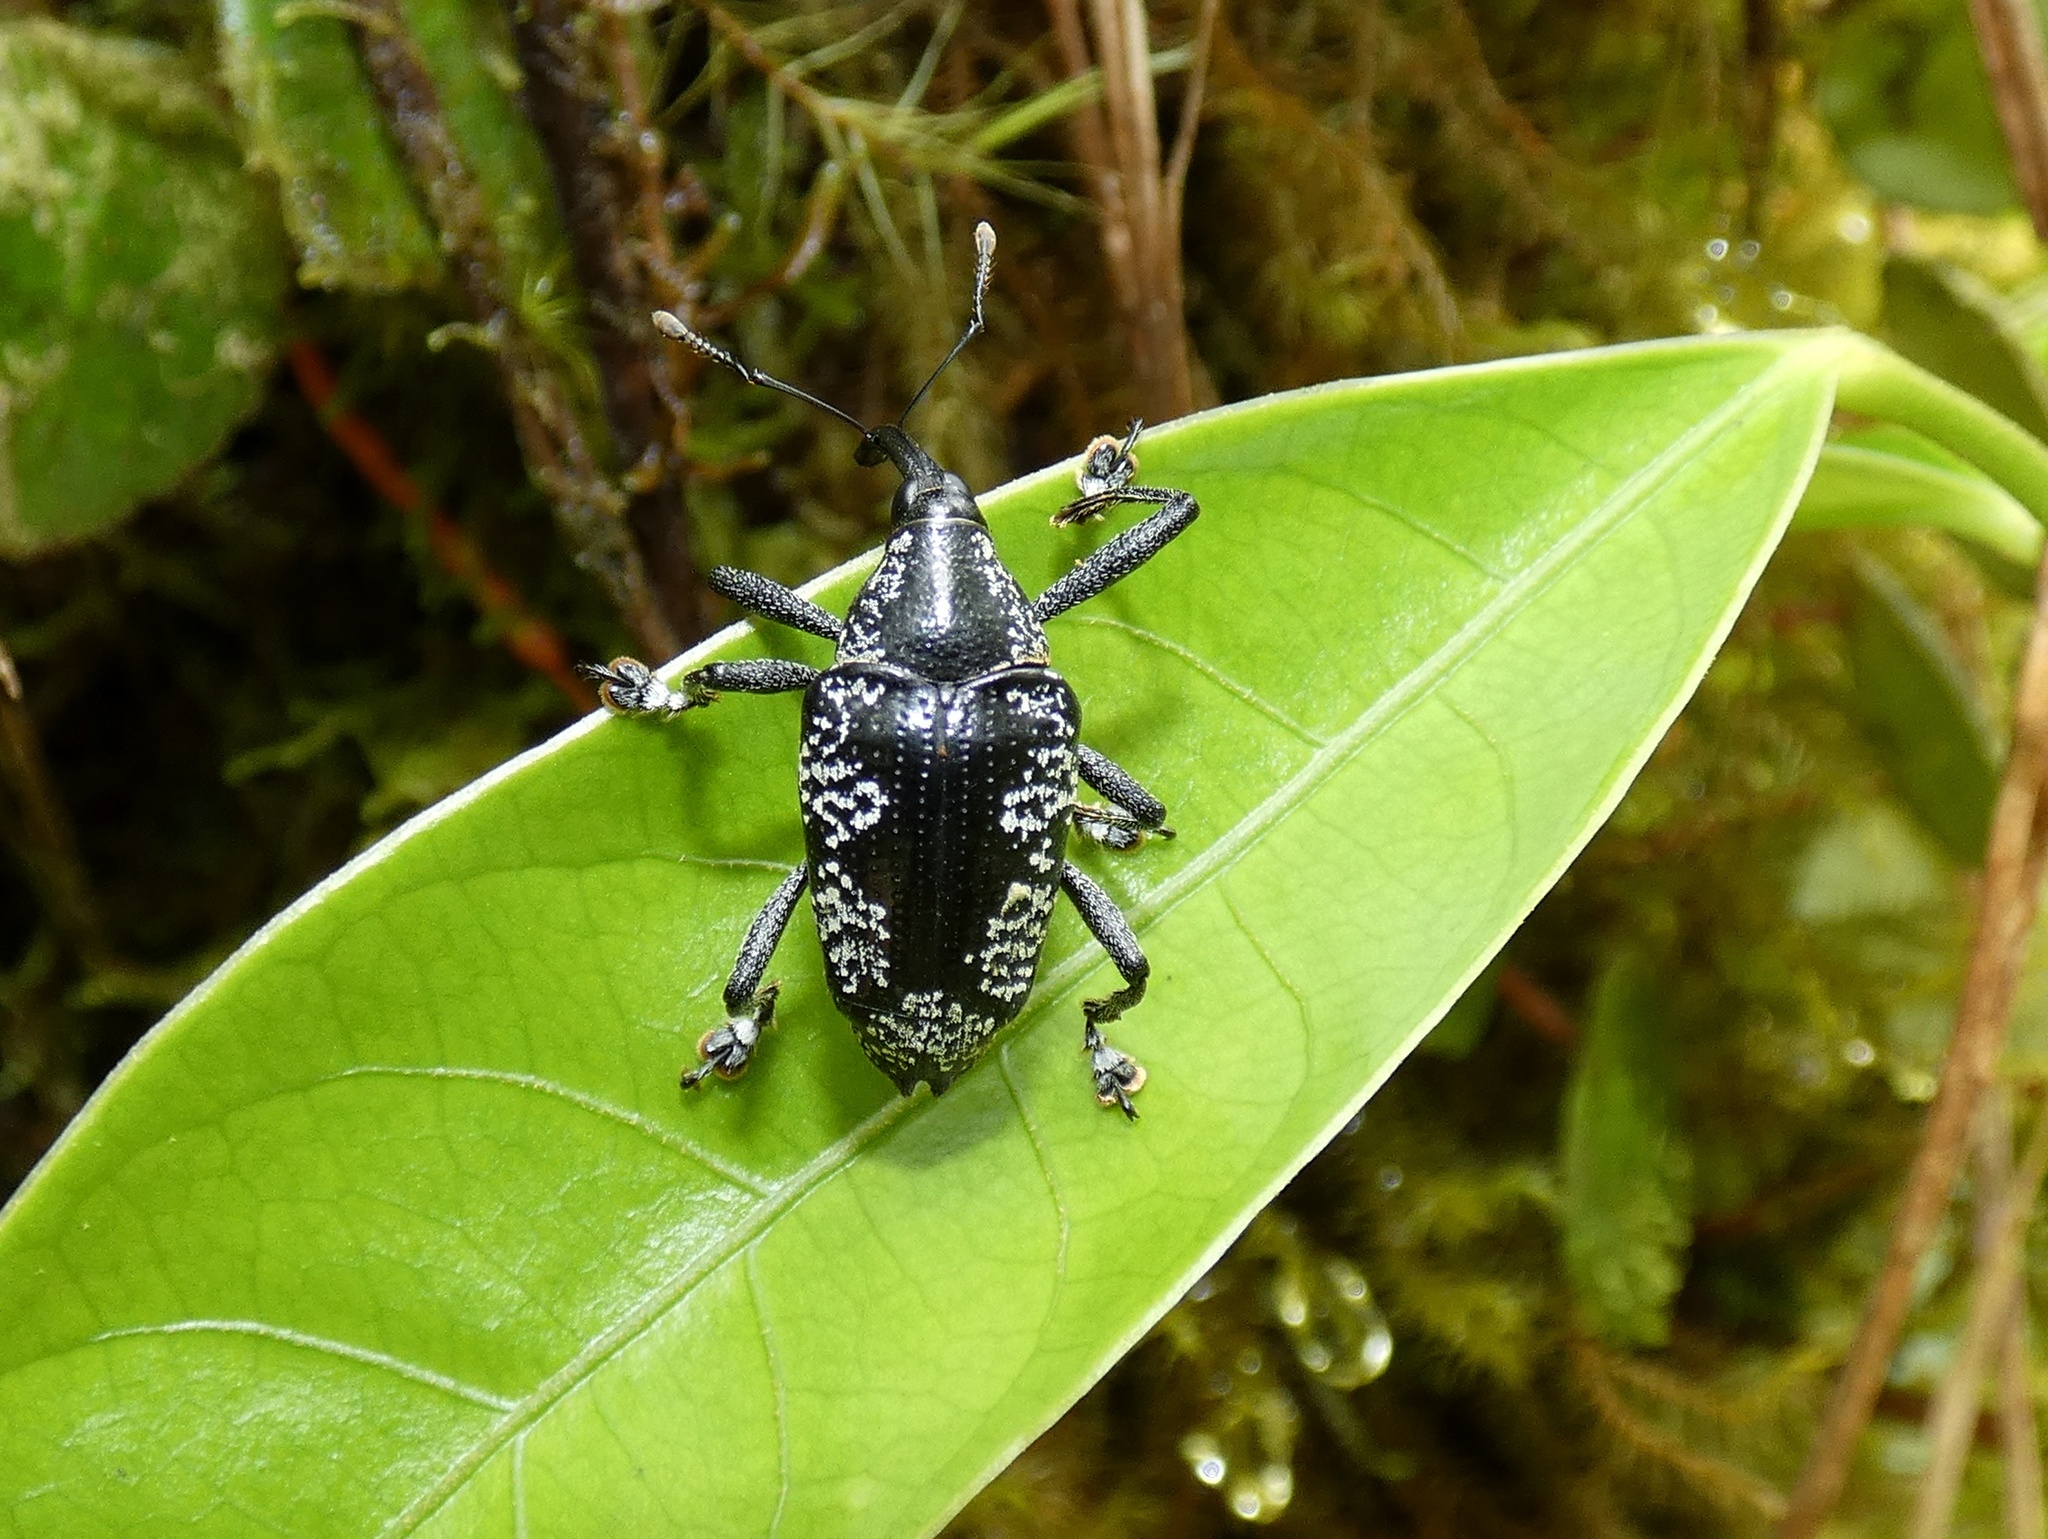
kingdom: Animalia
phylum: Arthropoda
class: Insecta
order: Coleoptera
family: Curculionidae
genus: Cholus
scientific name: Cholus calvescens
